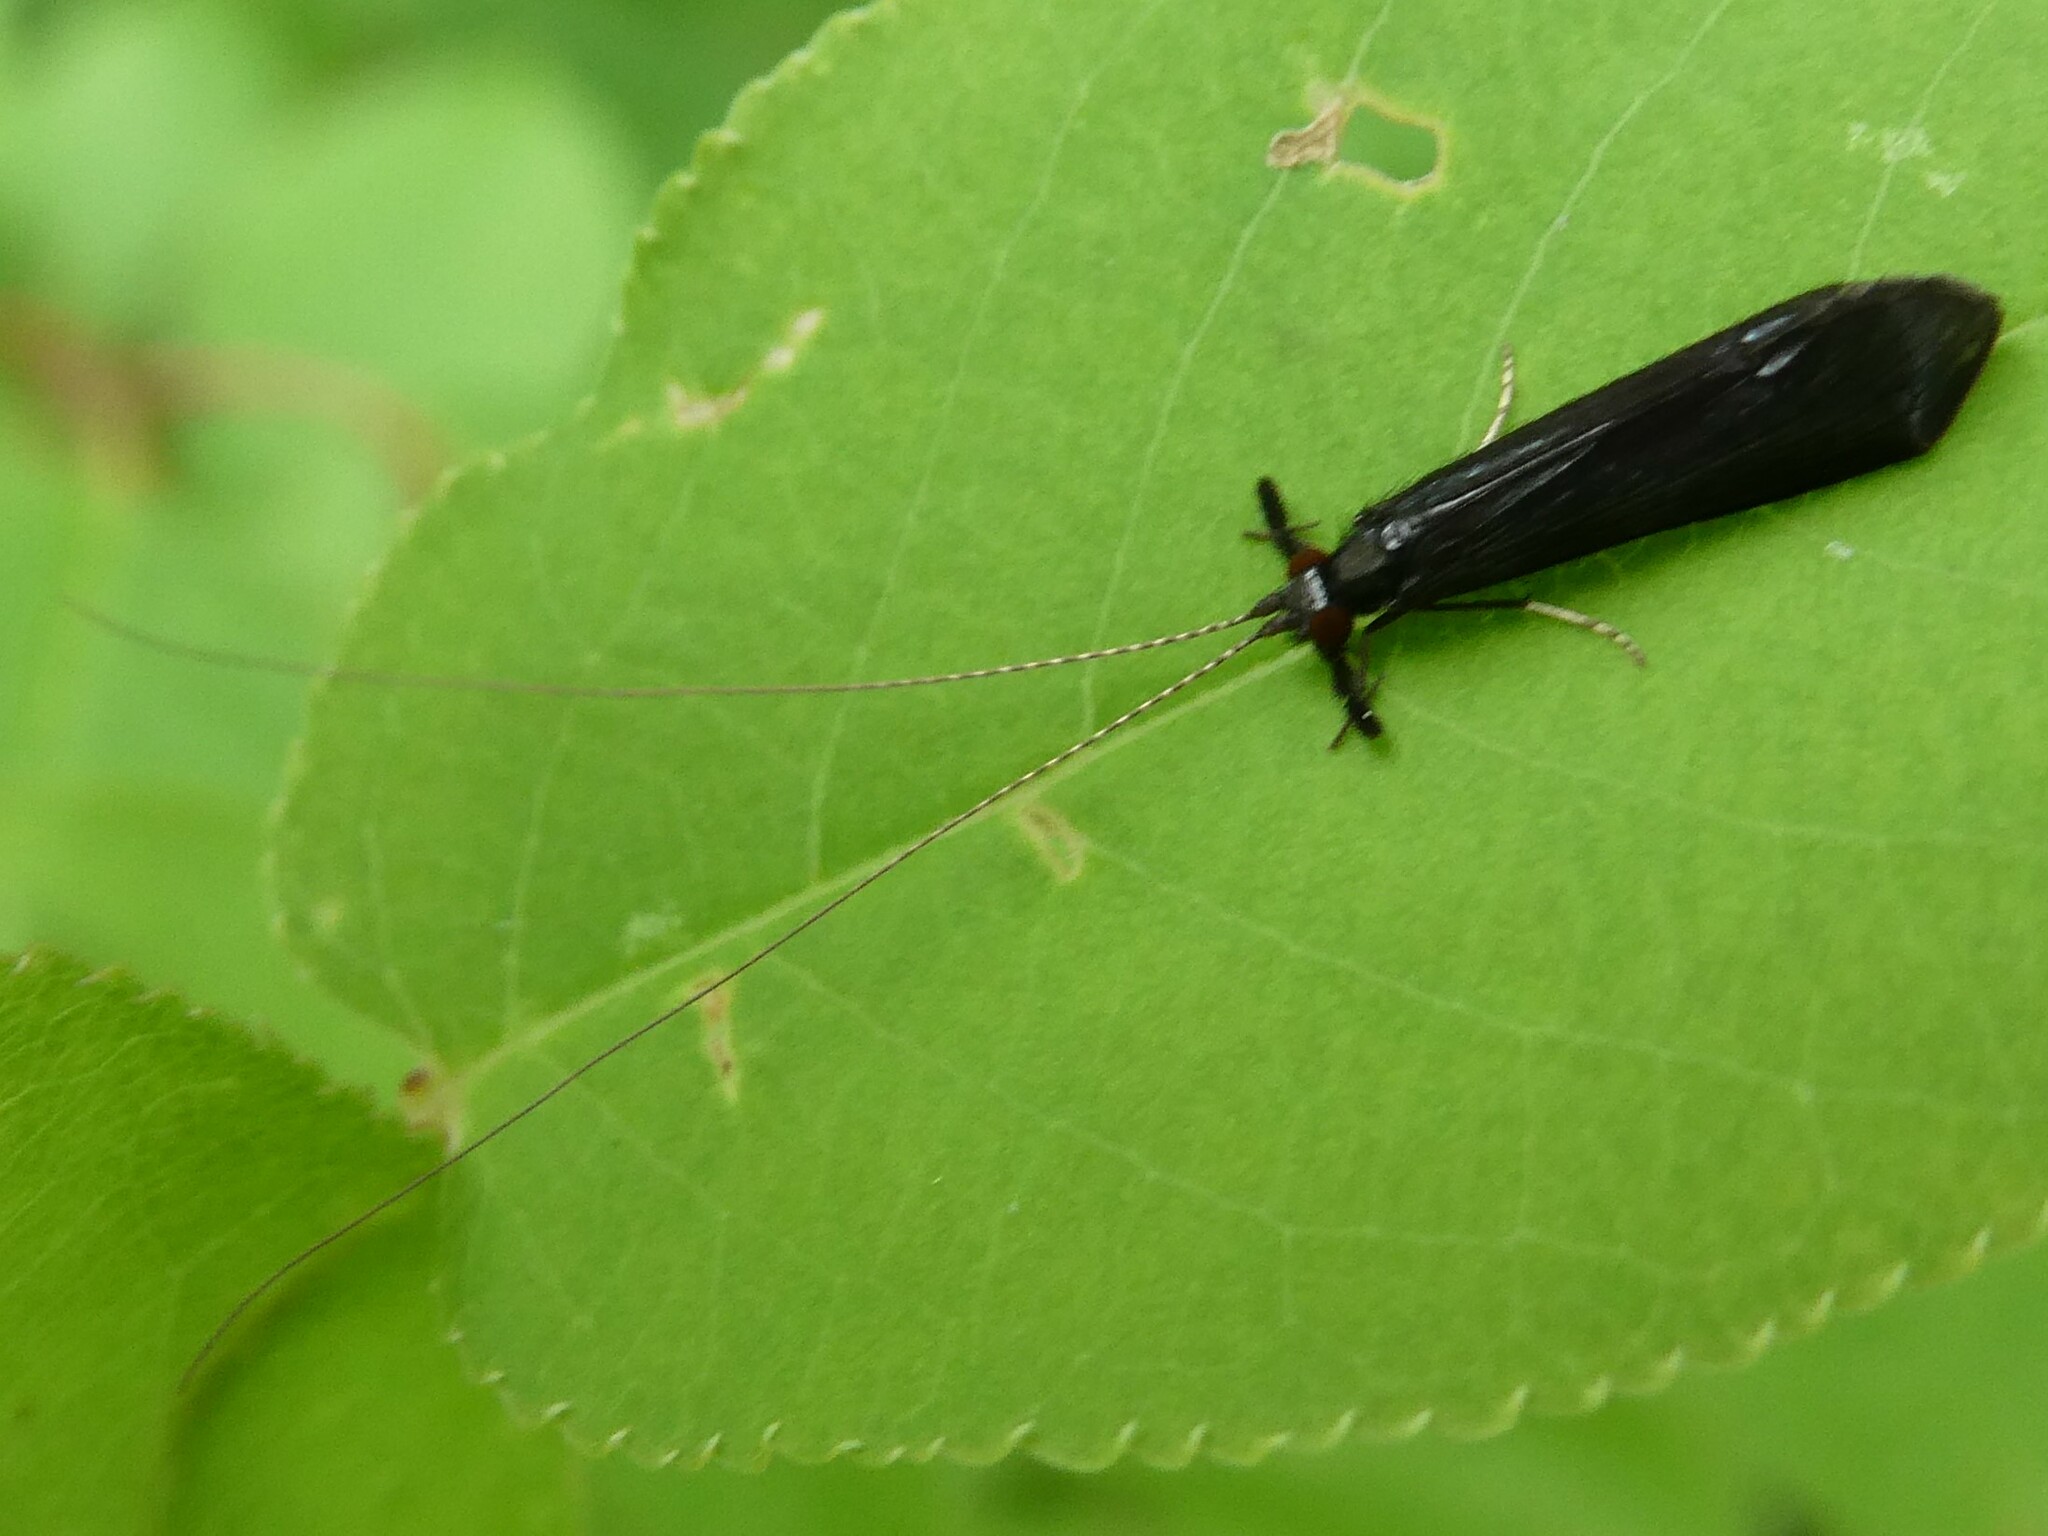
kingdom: Animalia
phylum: Arthropoda
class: Insecta
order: Trichoptera
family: Leptoceridae
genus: Mystacides
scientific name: Mystacides sepulchralis
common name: Black dancer caddisfly
